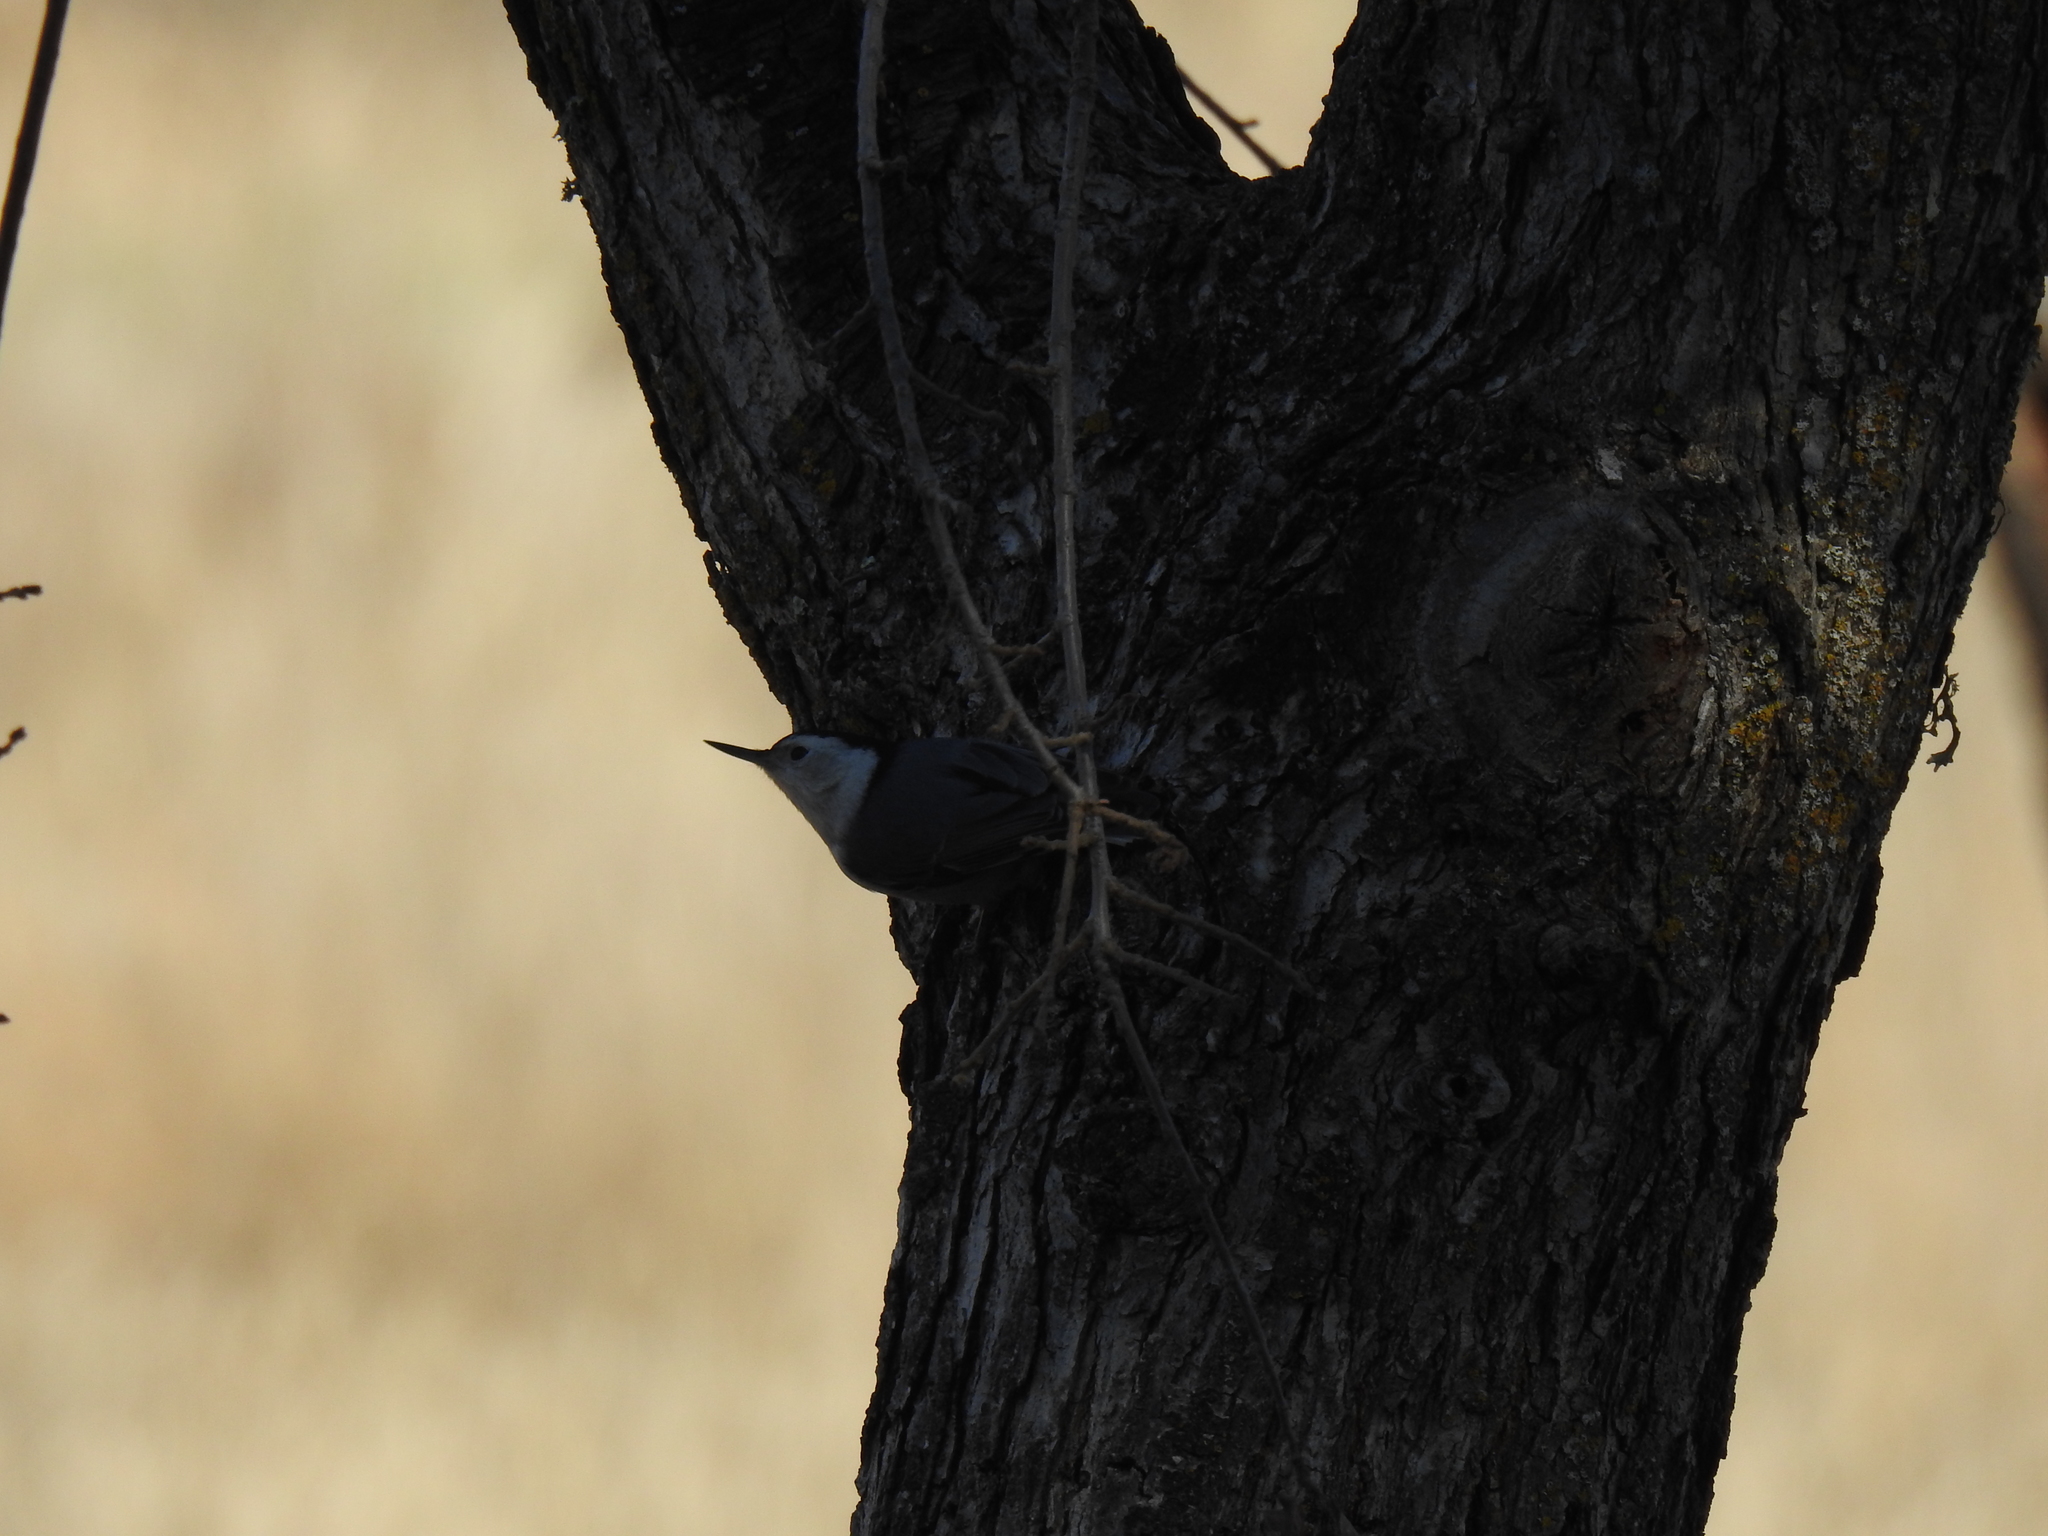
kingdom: Animalia
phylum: Chordata
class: Aves
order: Passeriformes
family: Sittidae
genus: Sitta
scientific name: Sitta carolinensis
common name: White-breasted nuthatch
